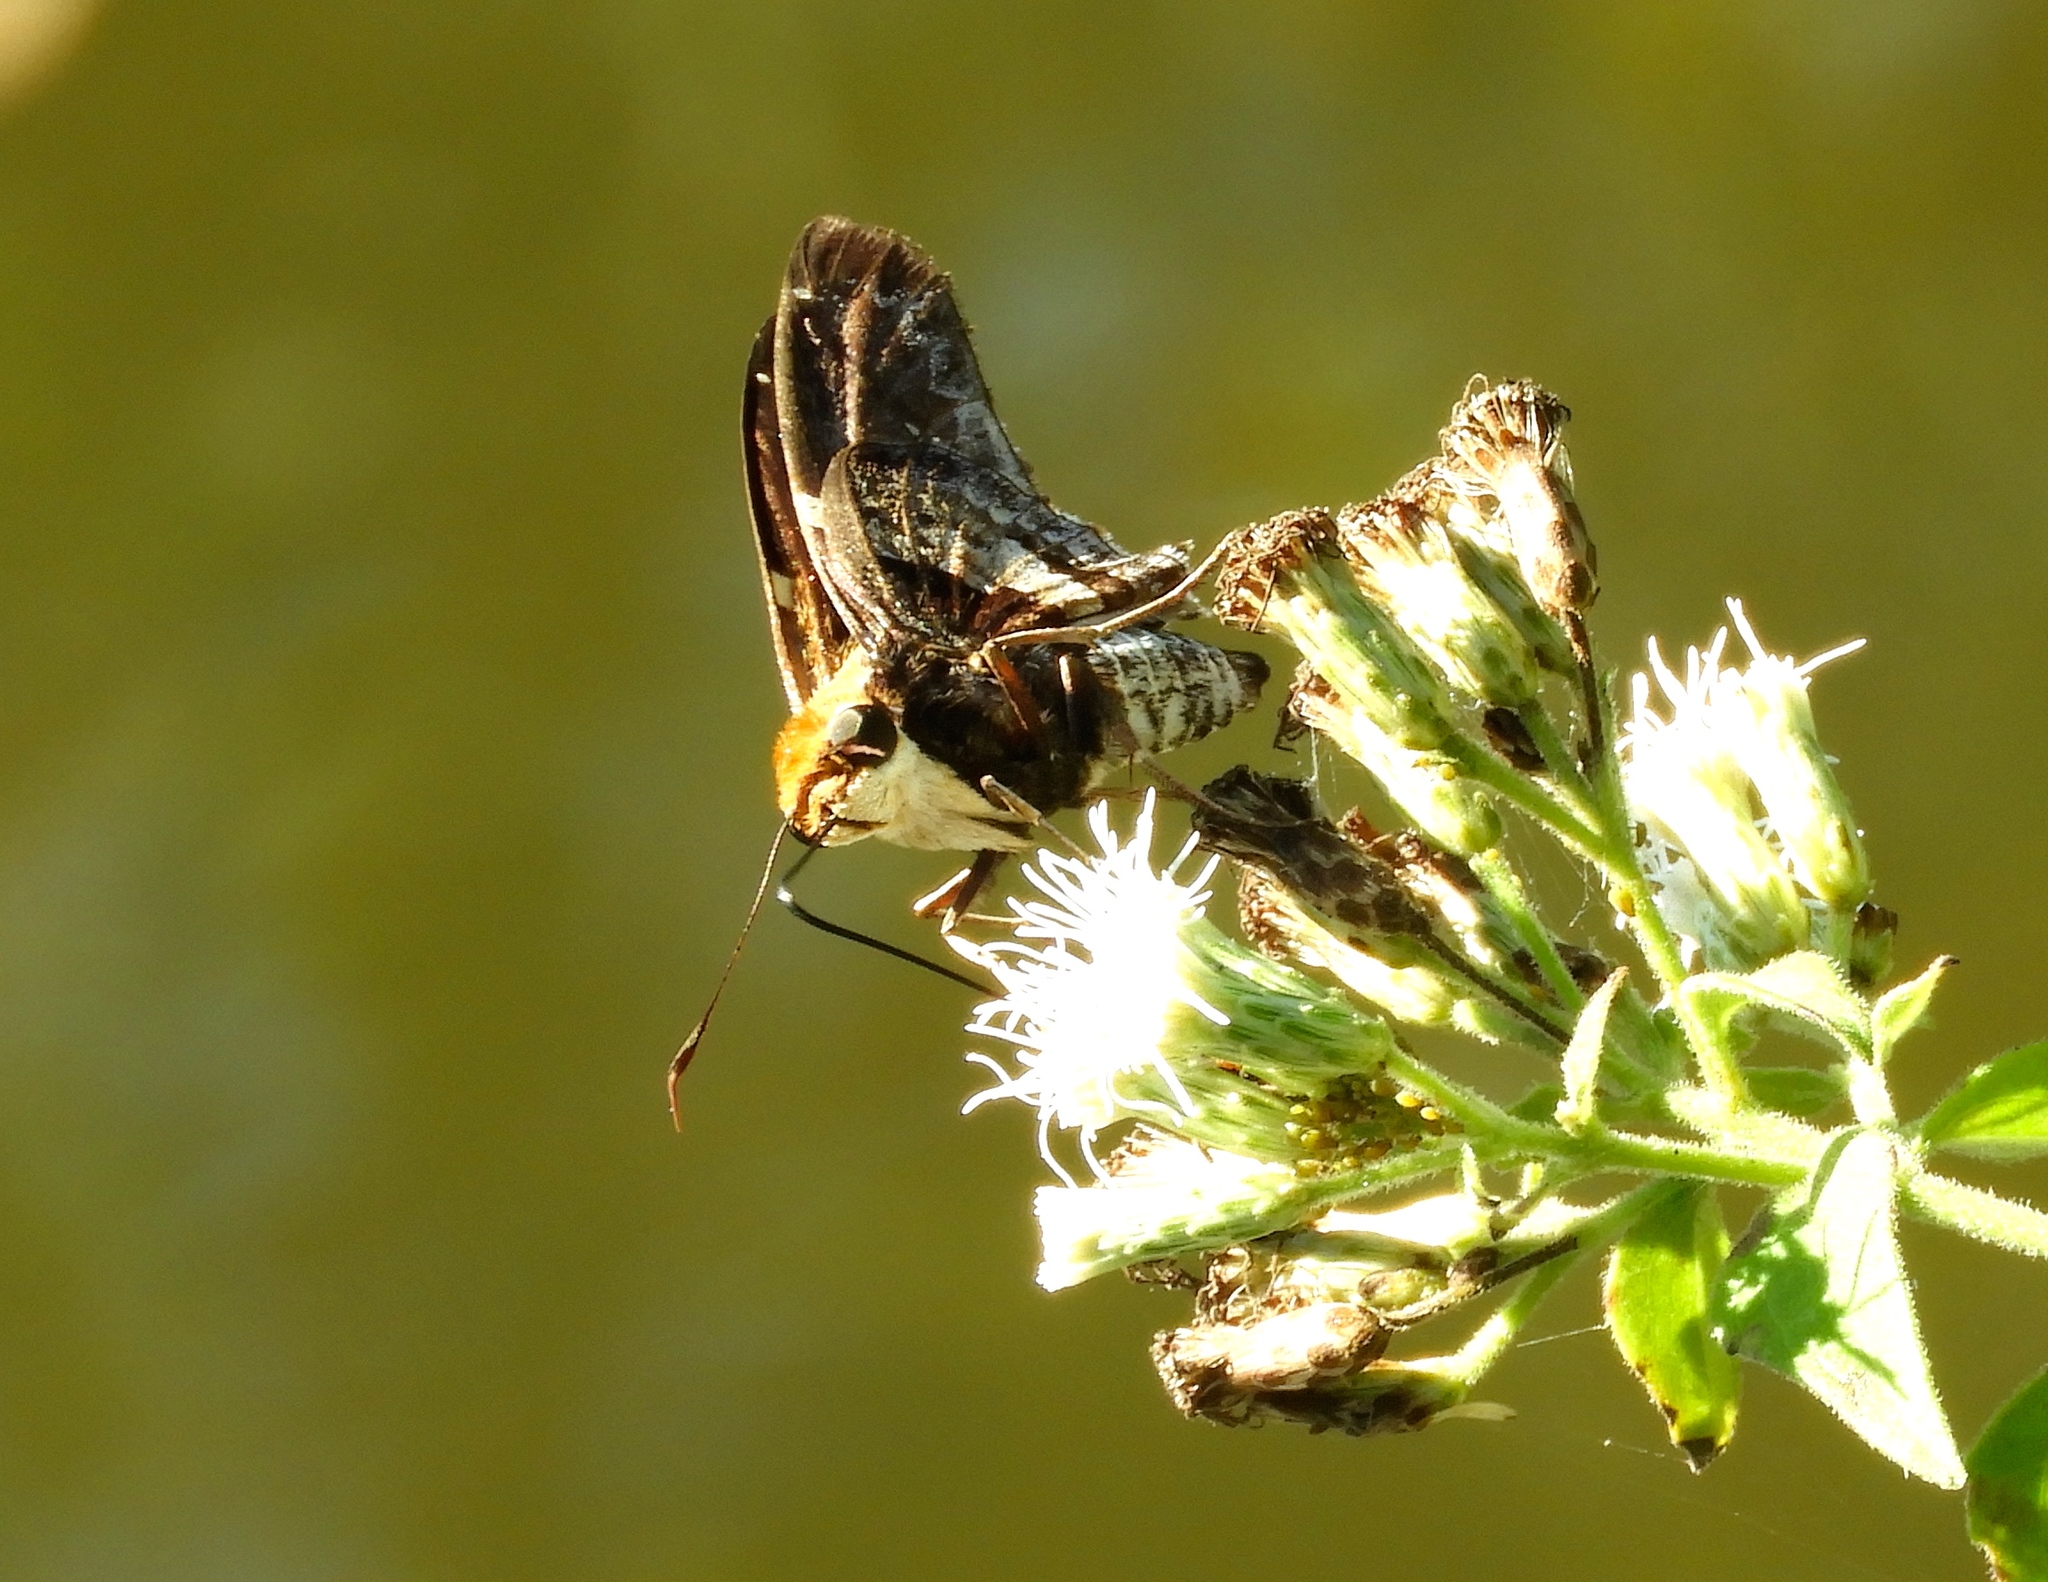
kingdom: Animalia
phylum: Arthropoda
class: Insecta
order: Lepidoptera
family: Hesperiidae
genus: Proteides
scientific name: Proteides mercurius
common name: Mercurial skipper
